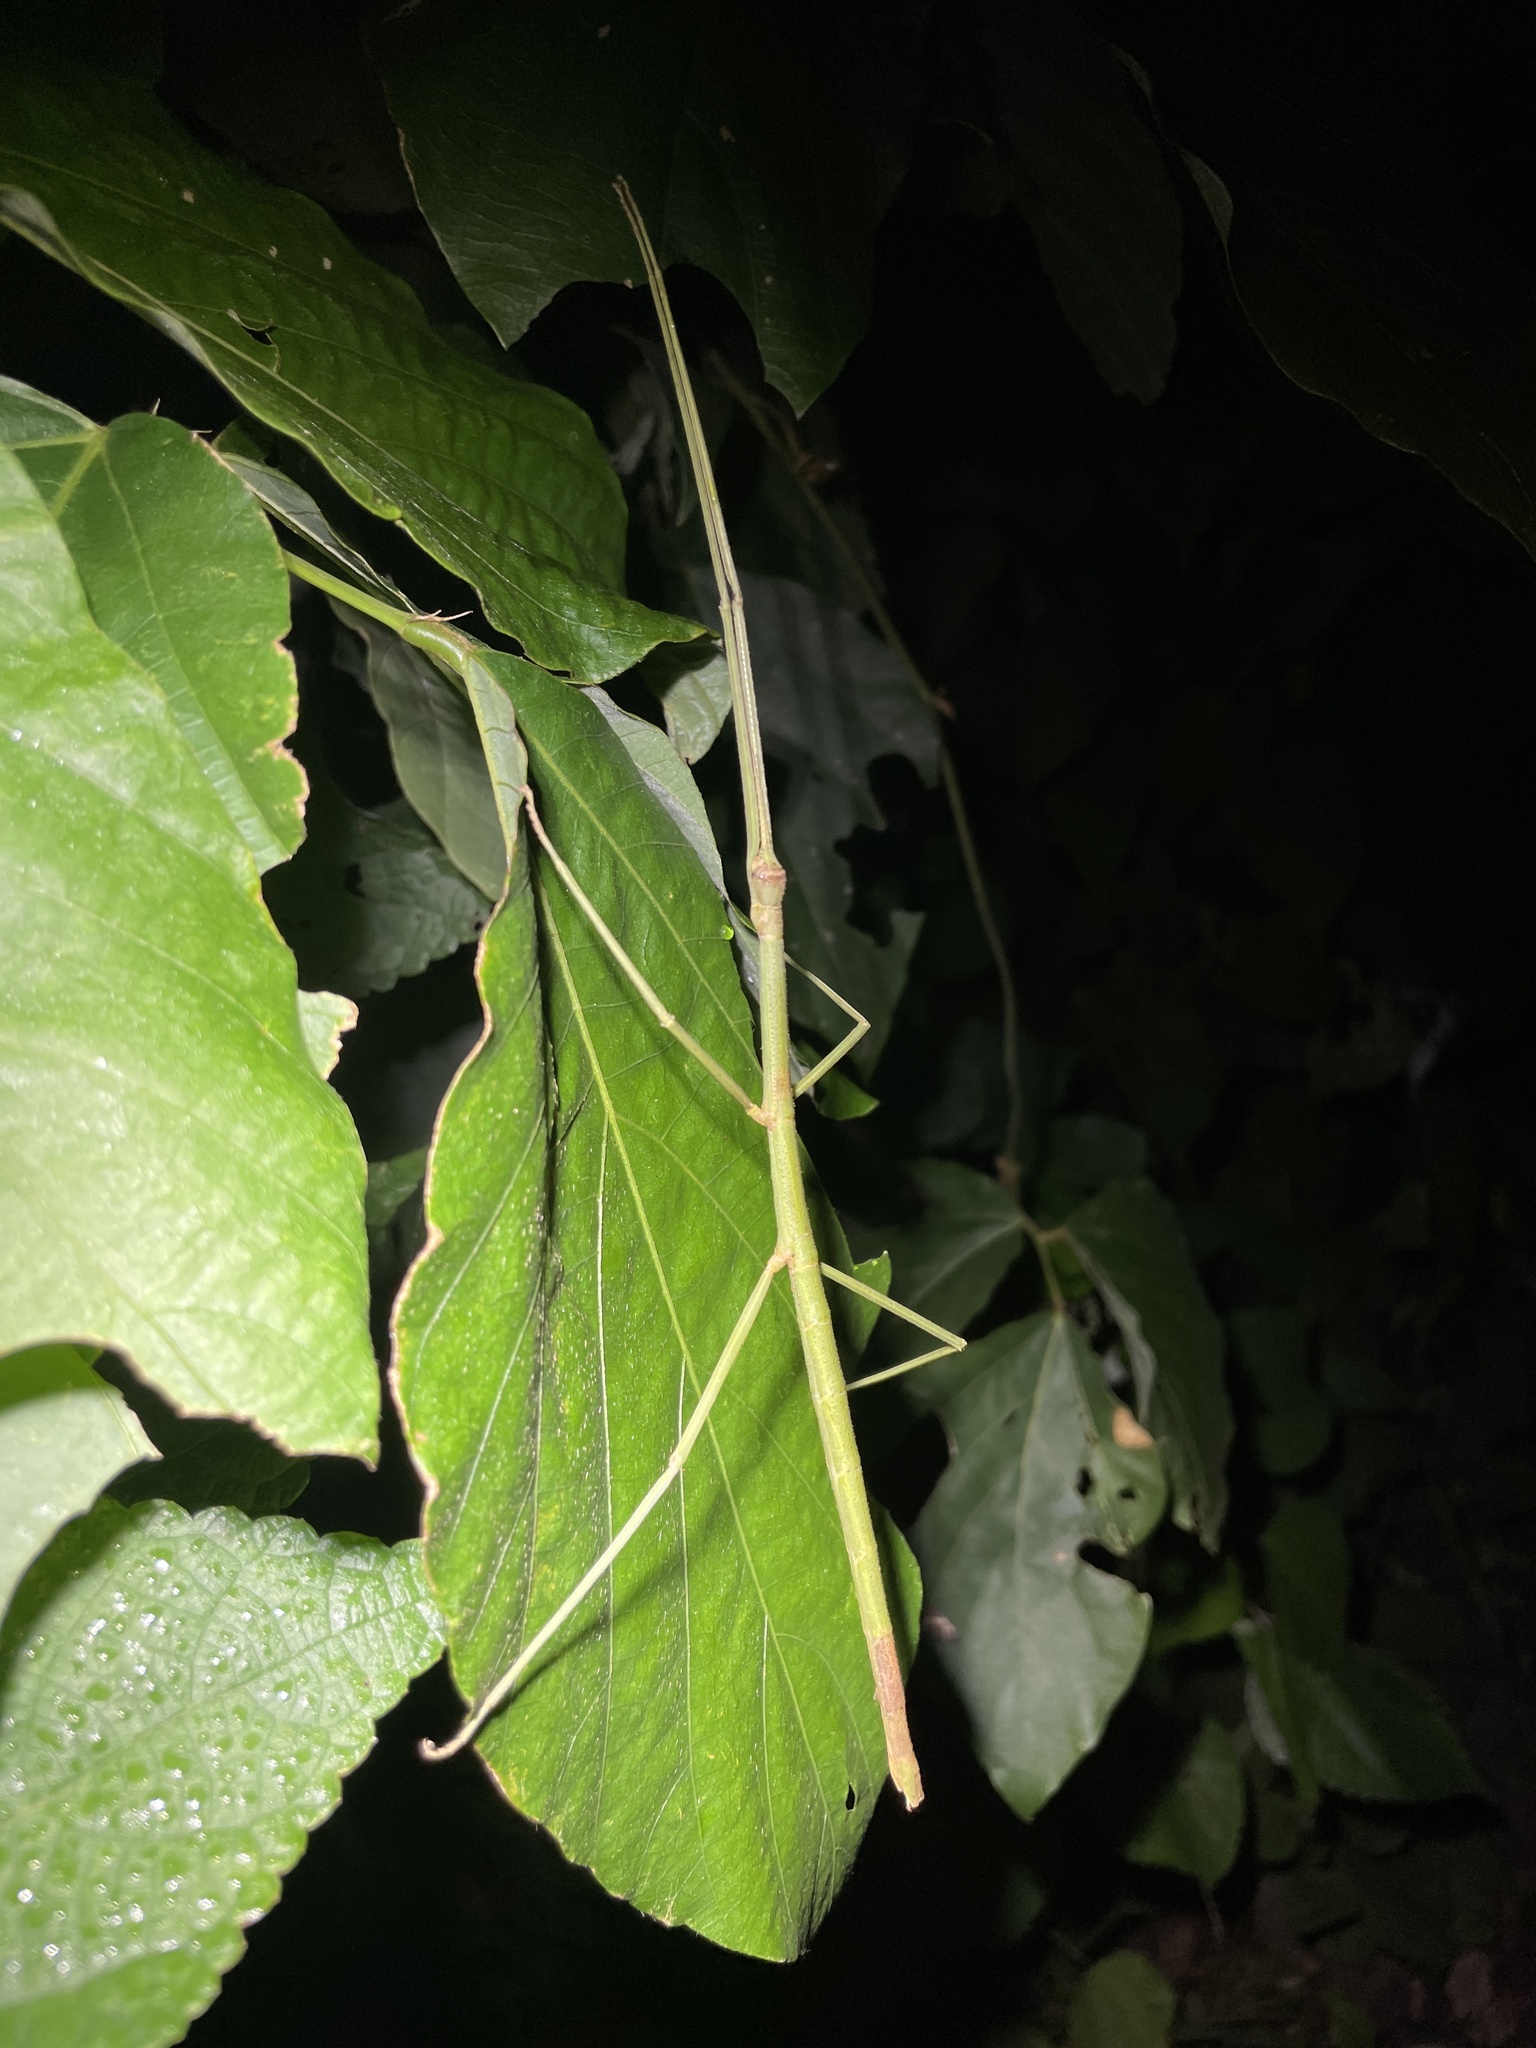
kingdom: Animalia
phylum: Arthropoda
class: Insecta
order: Phasmida
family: Phasmatidae
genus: Ramulus
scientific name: Ramulus rotundus
